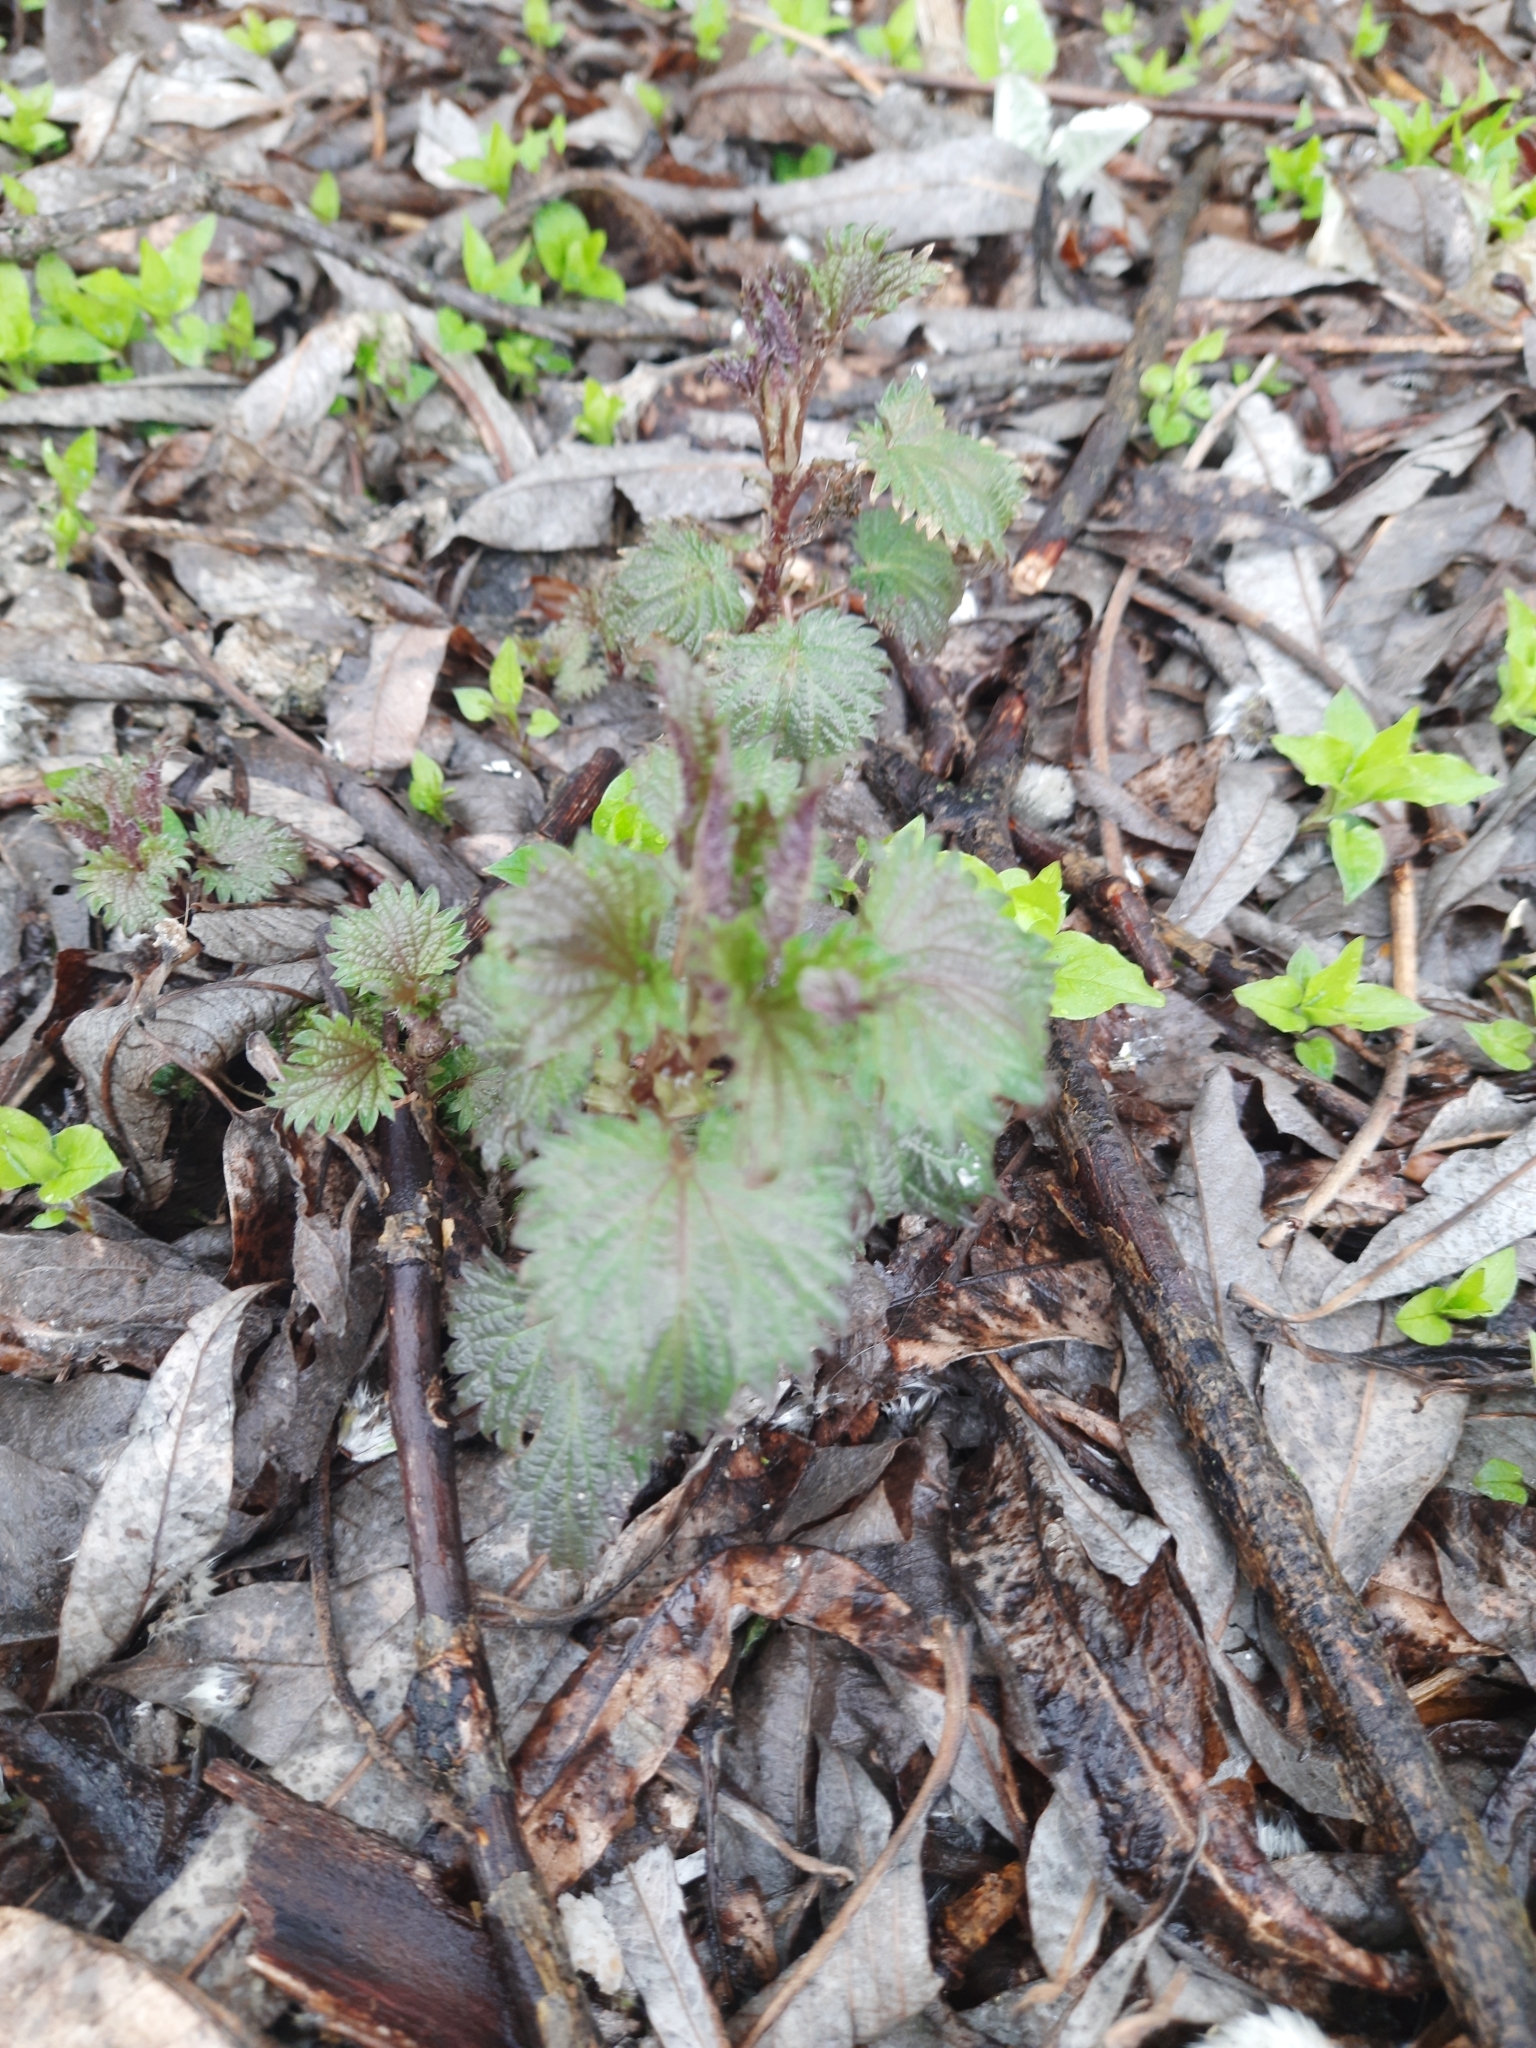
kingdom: Plantae
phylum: Tracheophyta
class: Magnoliopsida
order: Rosales
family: Urticaceae
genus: Urtica
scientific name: Urtica dioica
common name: Common nettle
